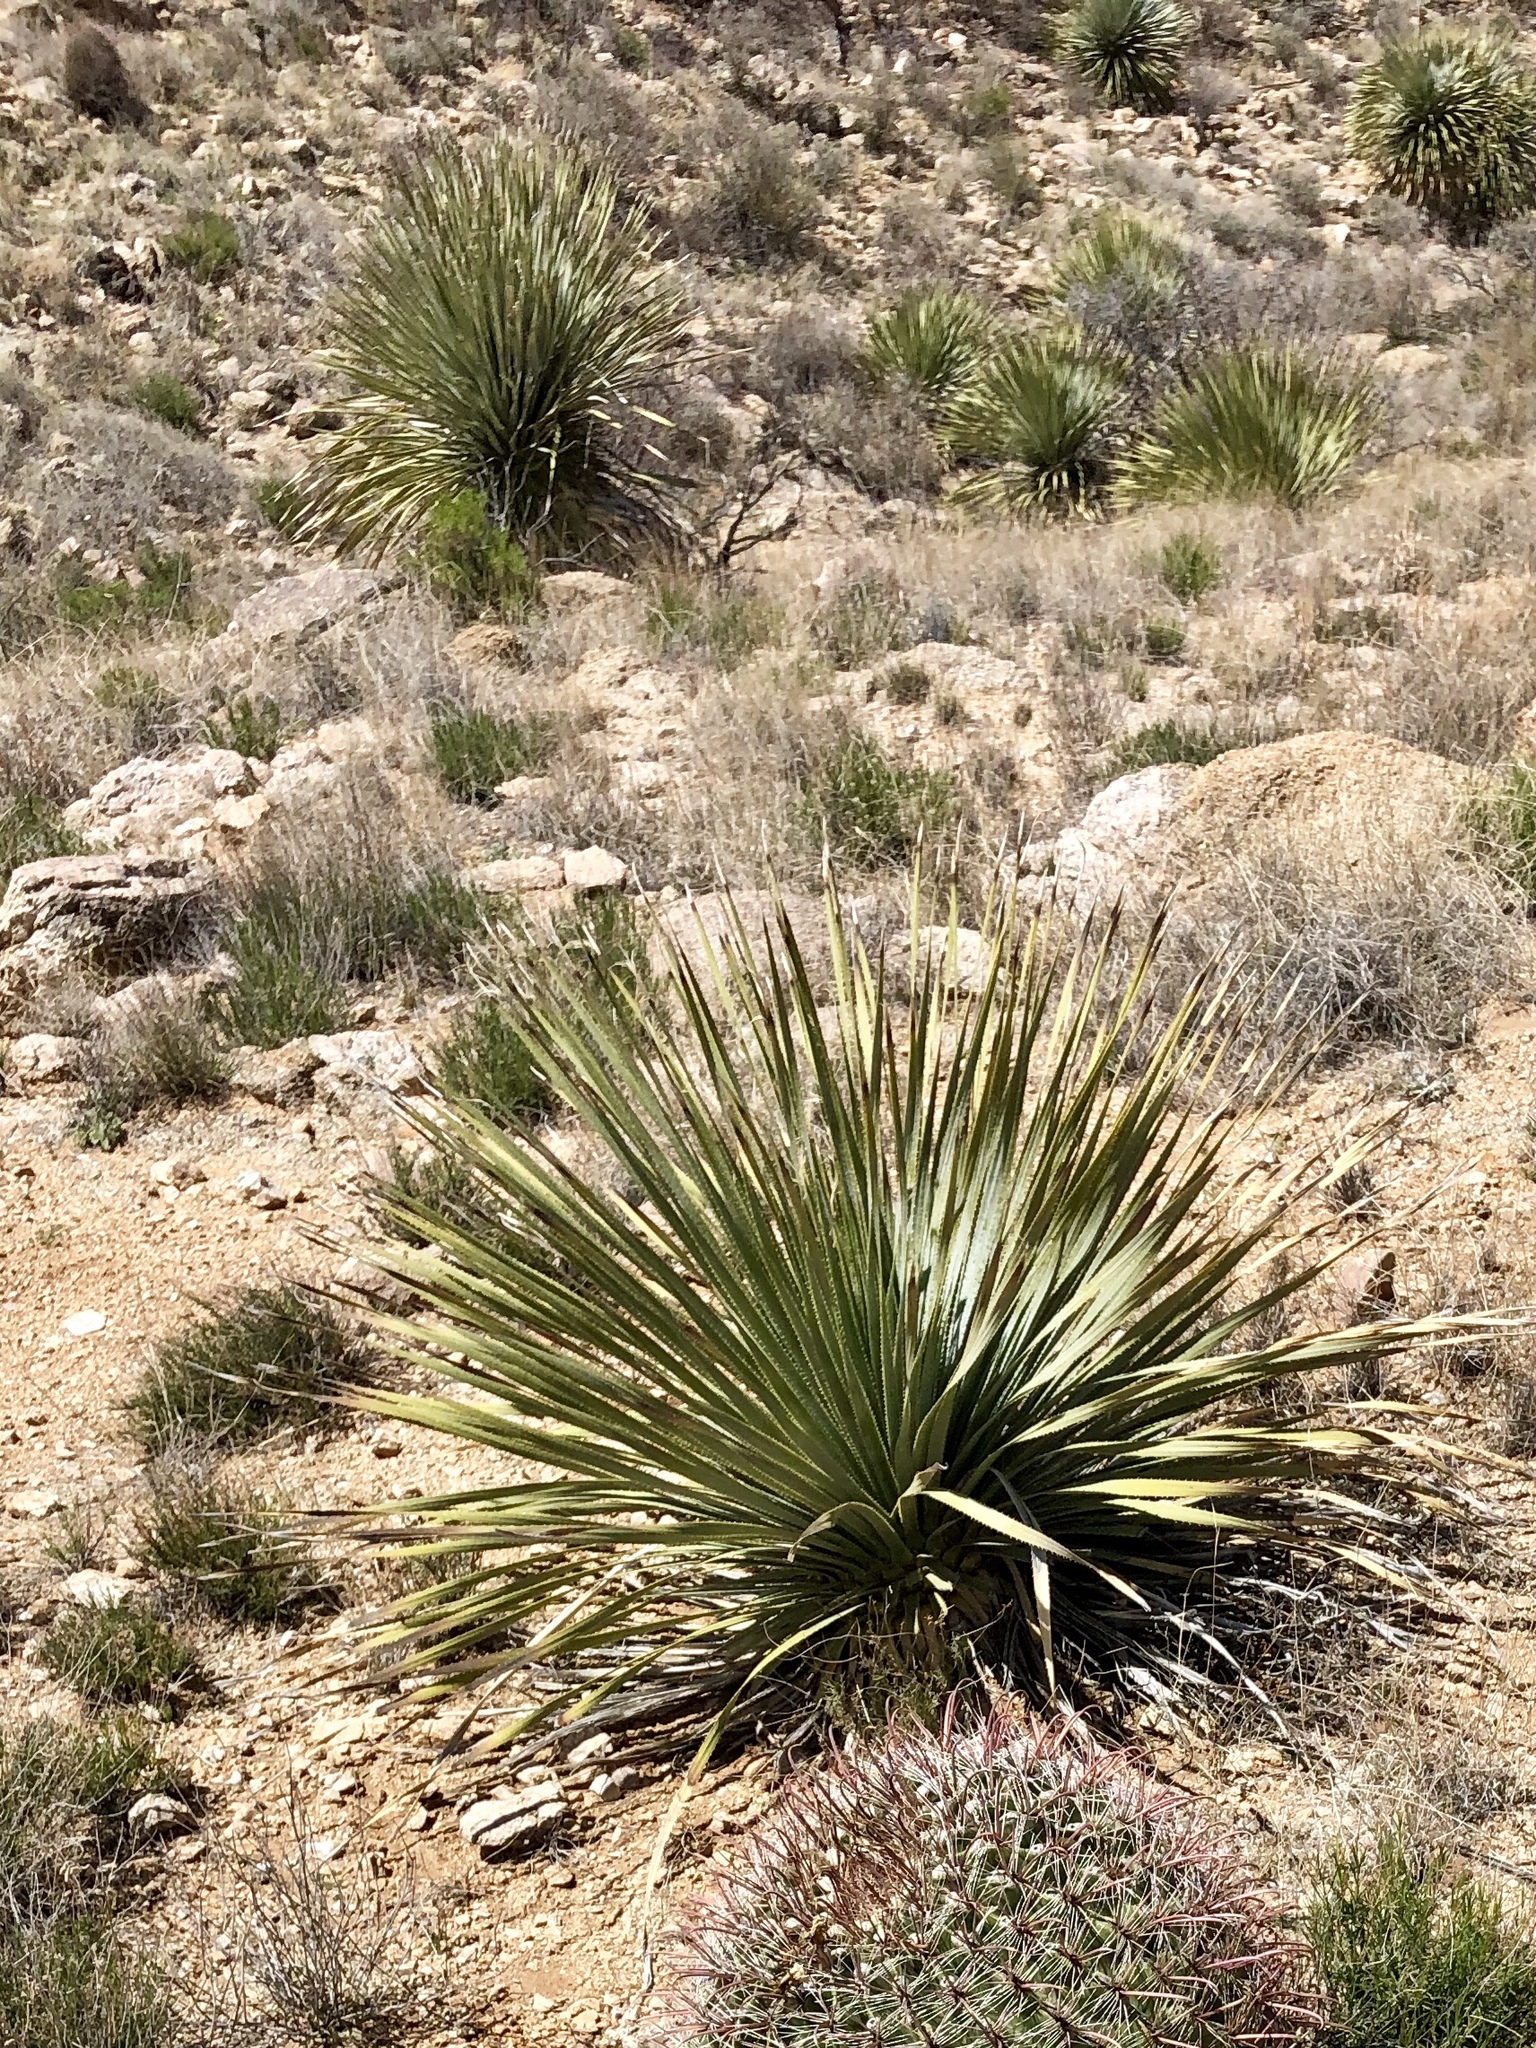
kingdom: Plantae
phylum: Tracheophyta
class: Liliopsida
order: Asparagales
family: Asparagaceae
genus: Dasylirion
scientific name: Dasylirion wheeleri
